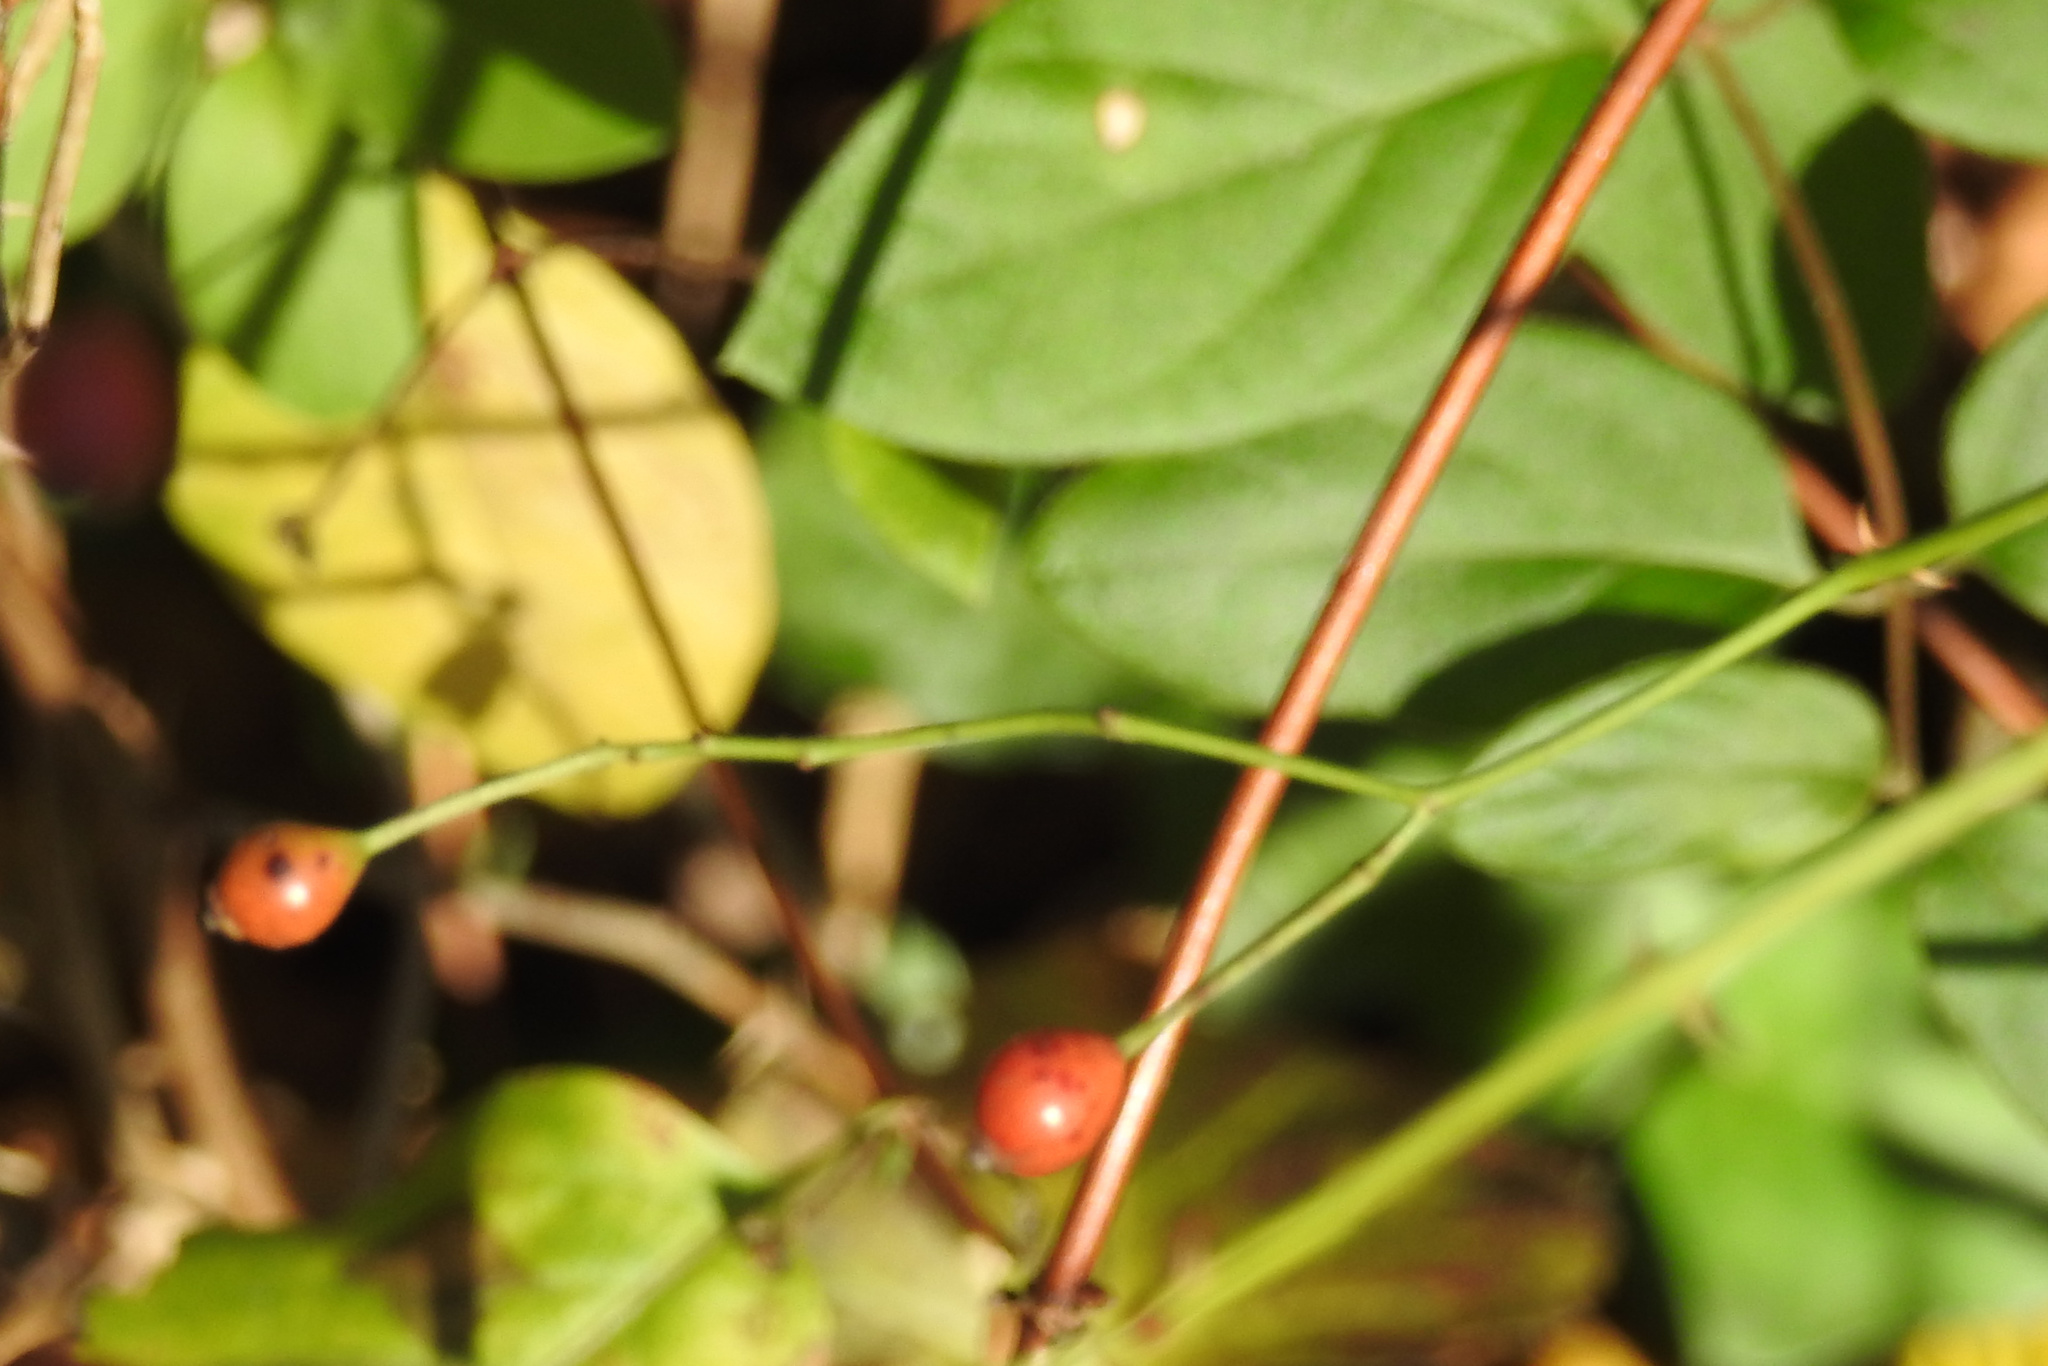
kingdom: Plantae
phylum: Tracheophyta
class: Magnoliopsida
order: Rosales
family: Rosaceae
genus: Rosa
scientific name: Rosa multiflora
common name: Multiflora rose
